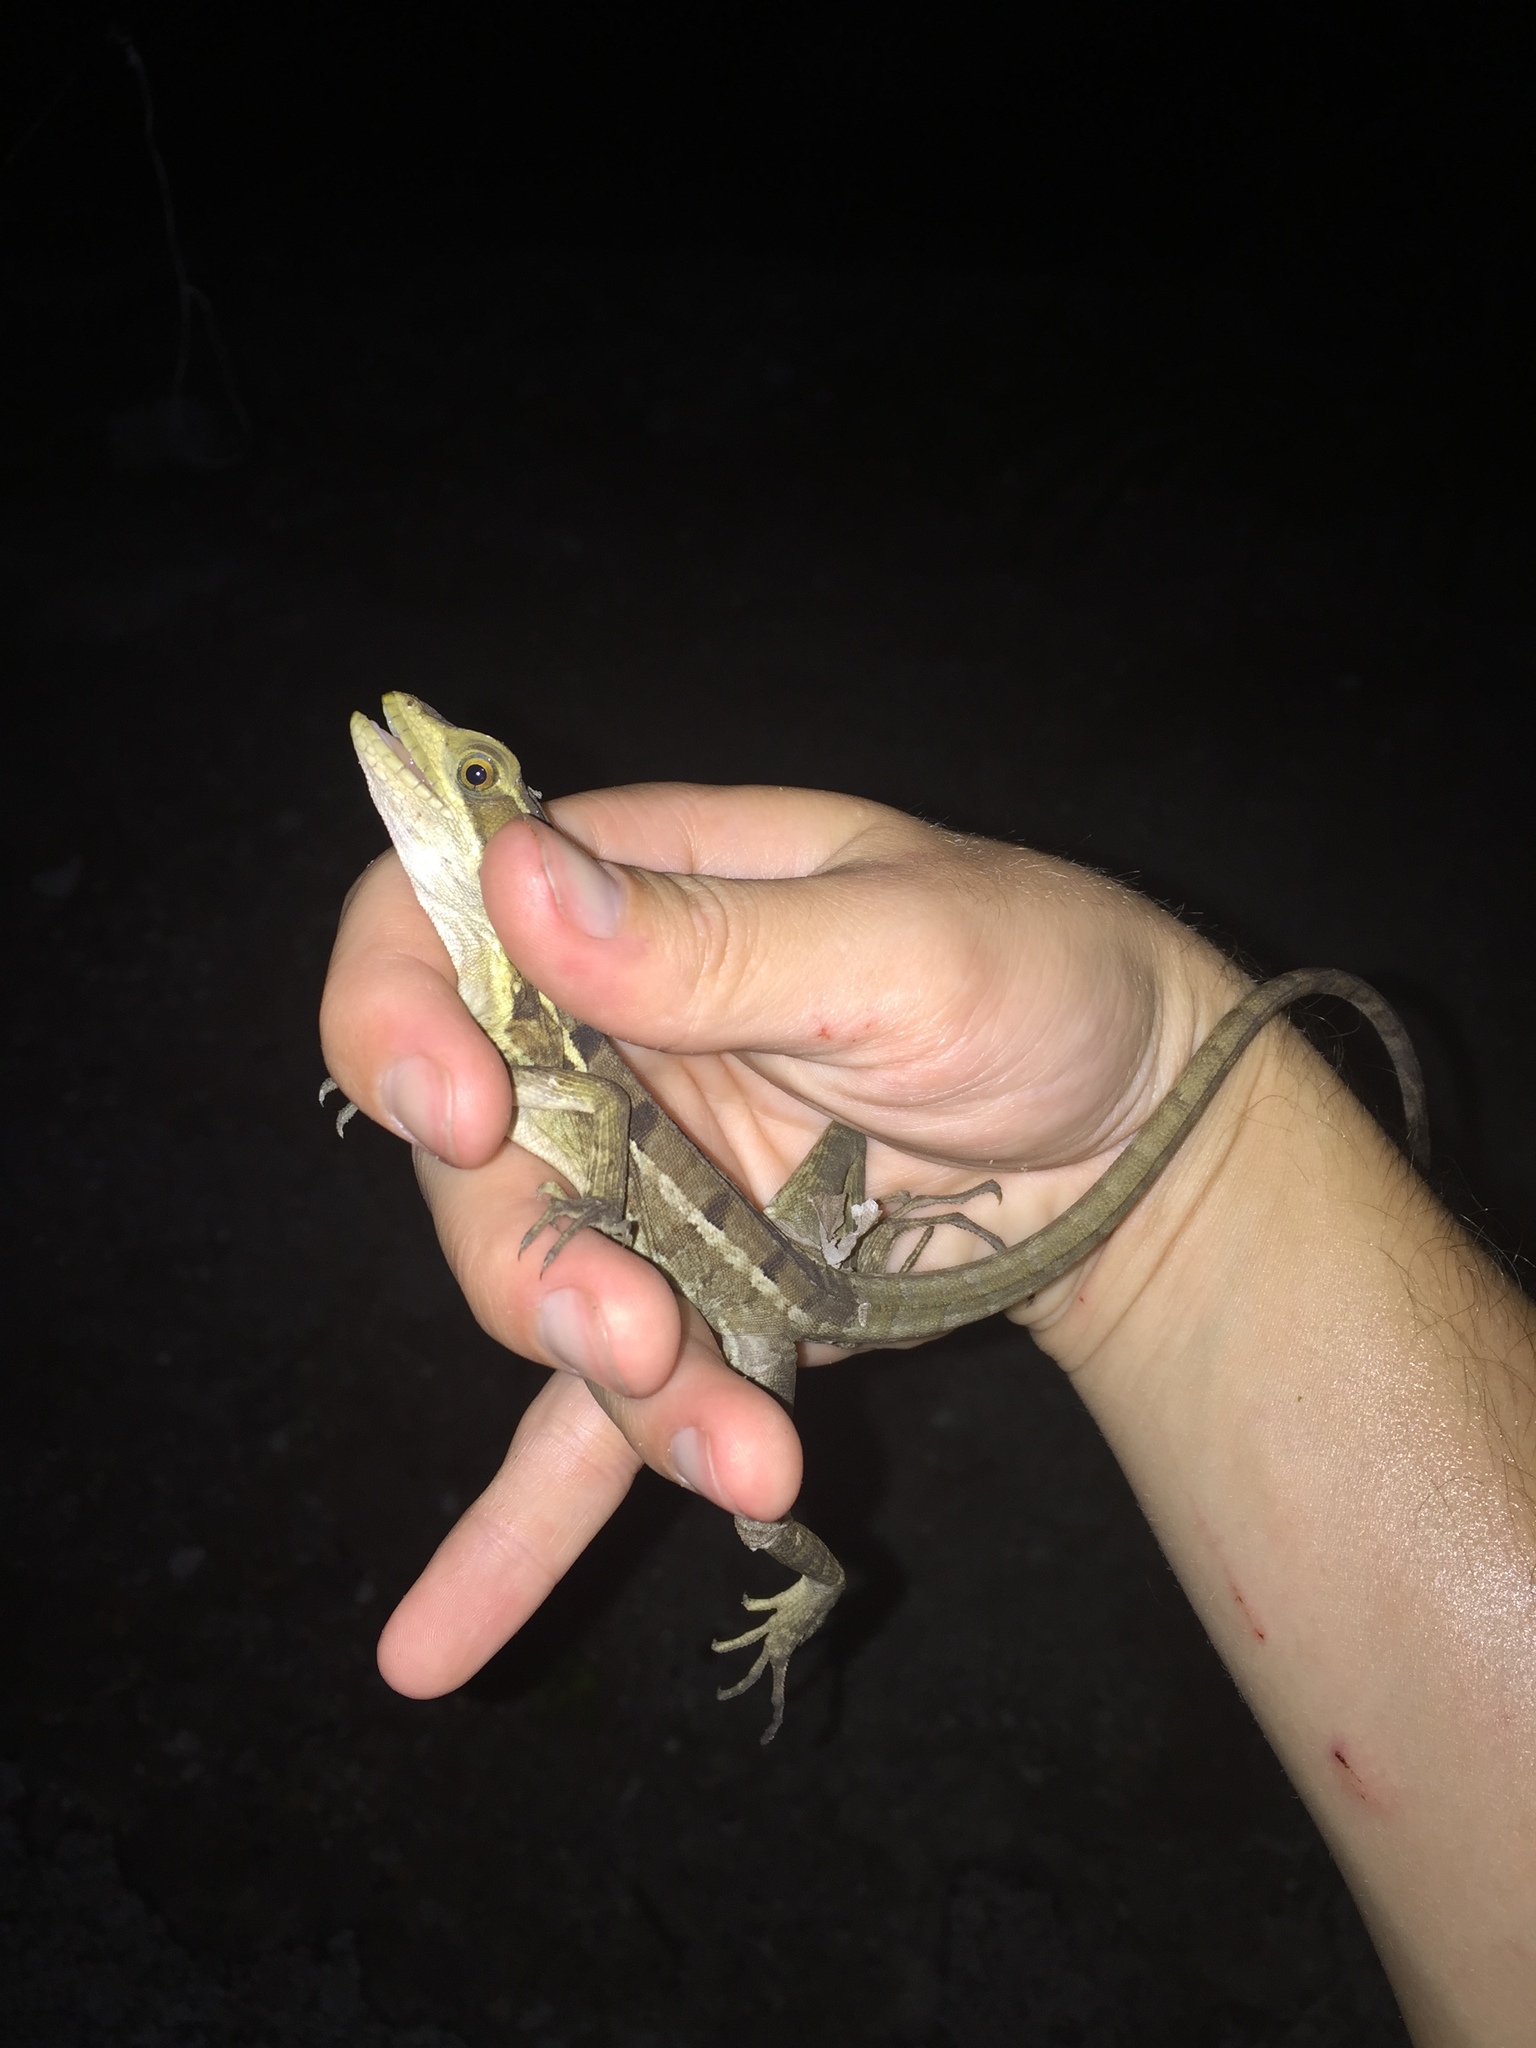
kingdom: Animalia
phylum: Chordata
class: Squamata
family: Corytophanidae
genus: Basiliscus
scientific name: Basiliscus vittatus
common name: Brown basilisk
